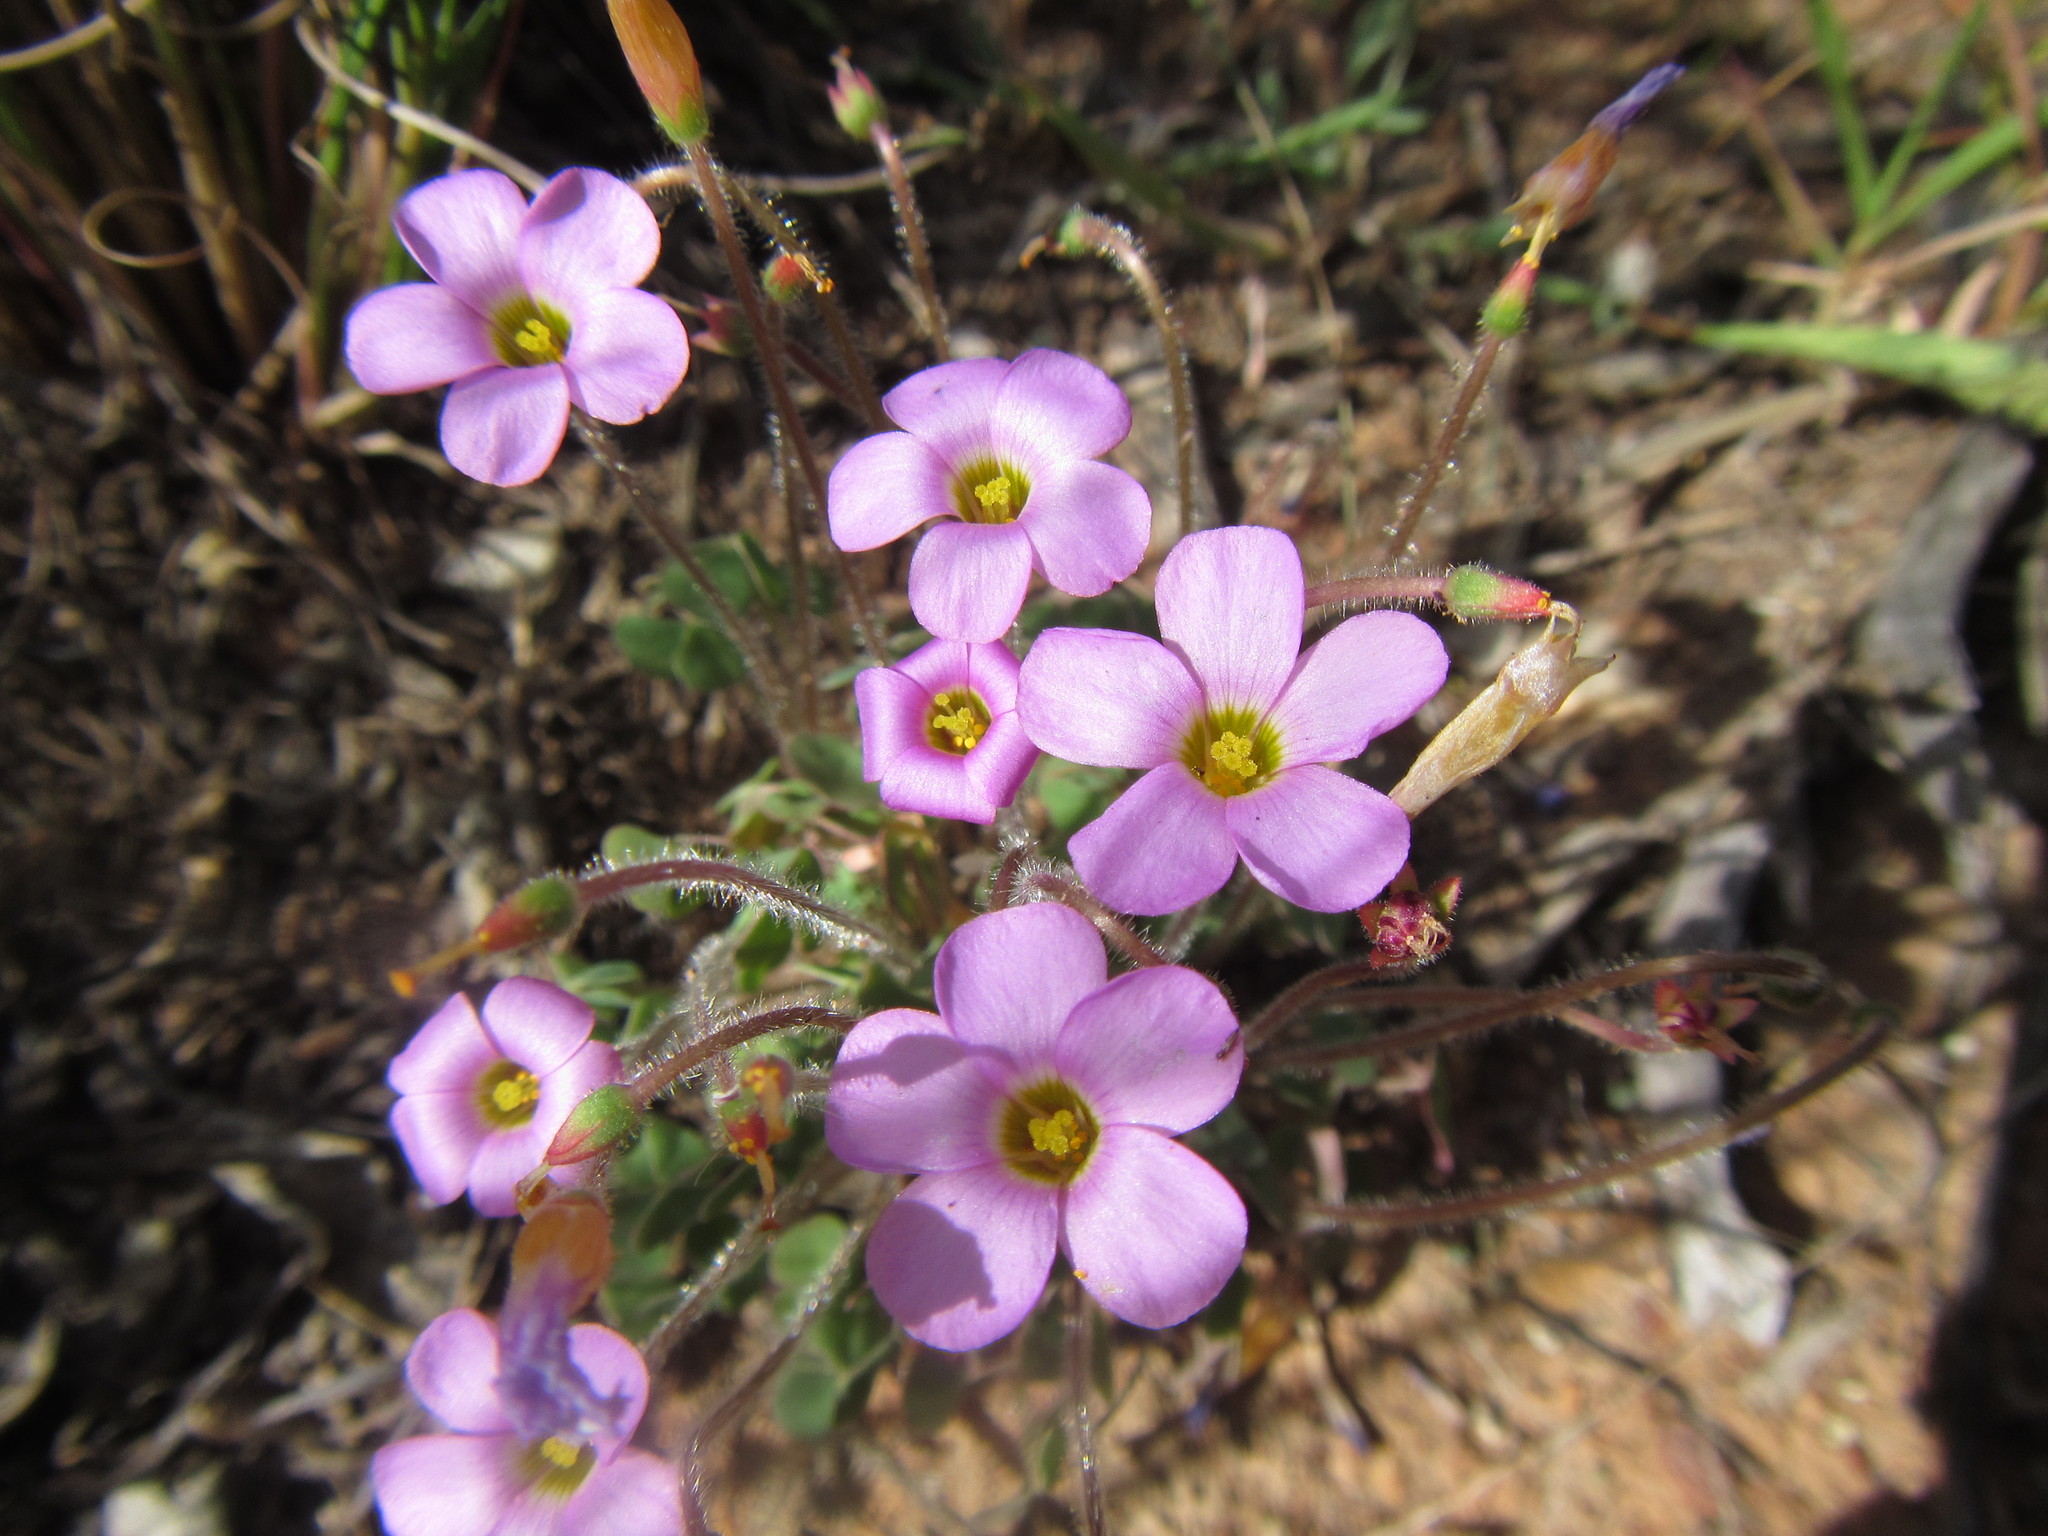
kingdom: Plantae
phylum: Tracheophyta
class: Magnoliopsida
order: Oxalidales
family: Oxalidaceae
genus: Oxalis
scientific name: Oxalis punctata
